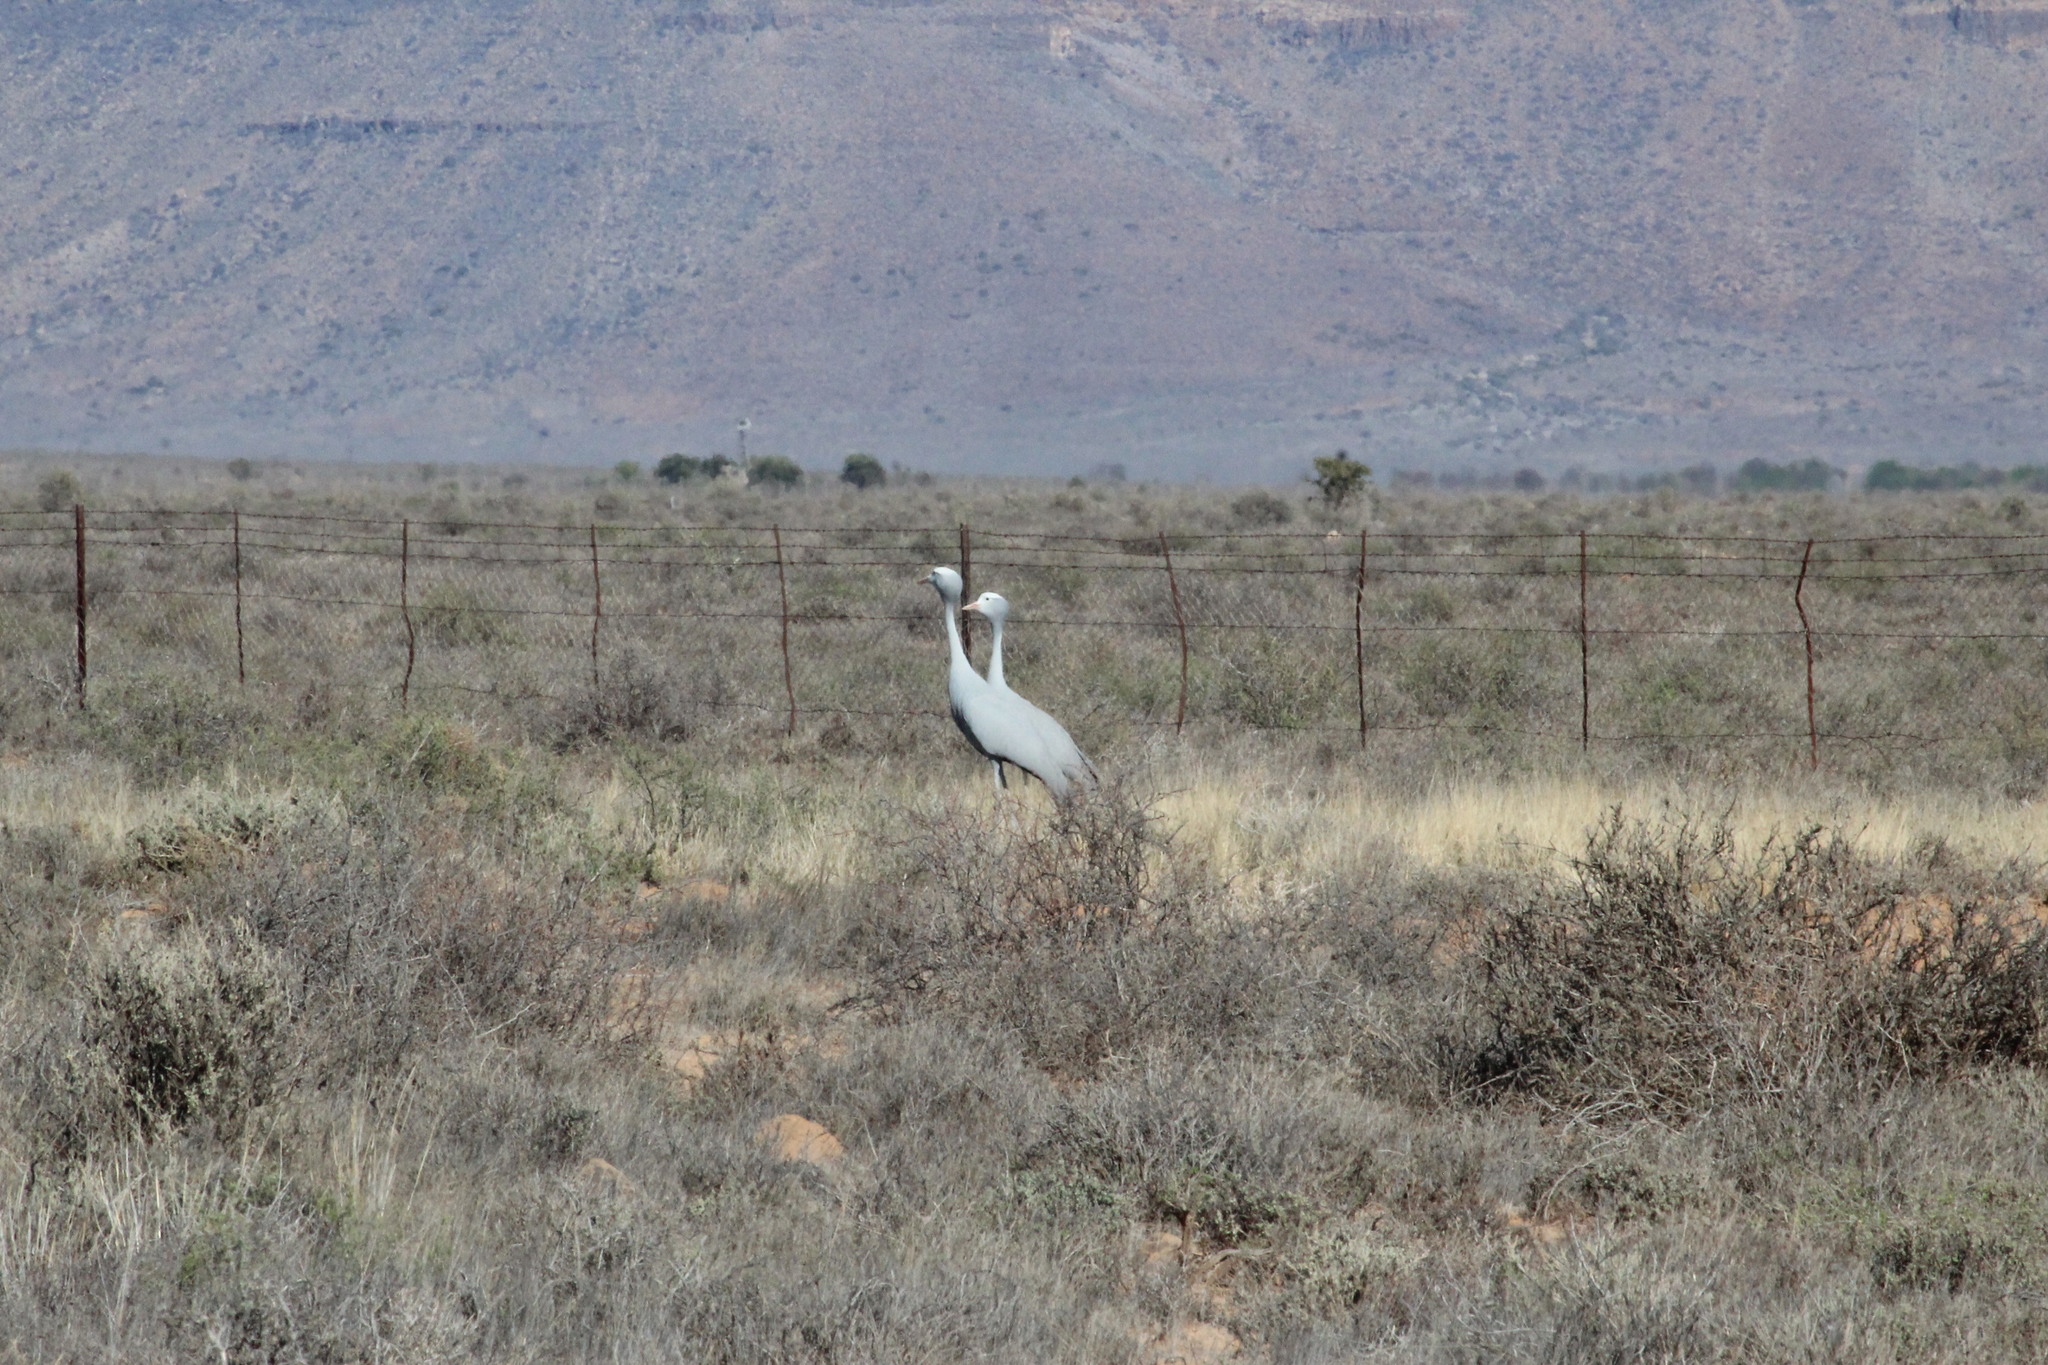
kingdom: Animalia
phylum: Chordata
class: Aves
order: Gruiformes
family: Gruidae
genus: Anthropoides
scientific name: Anthropoides paradiseus
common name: Blue crane
